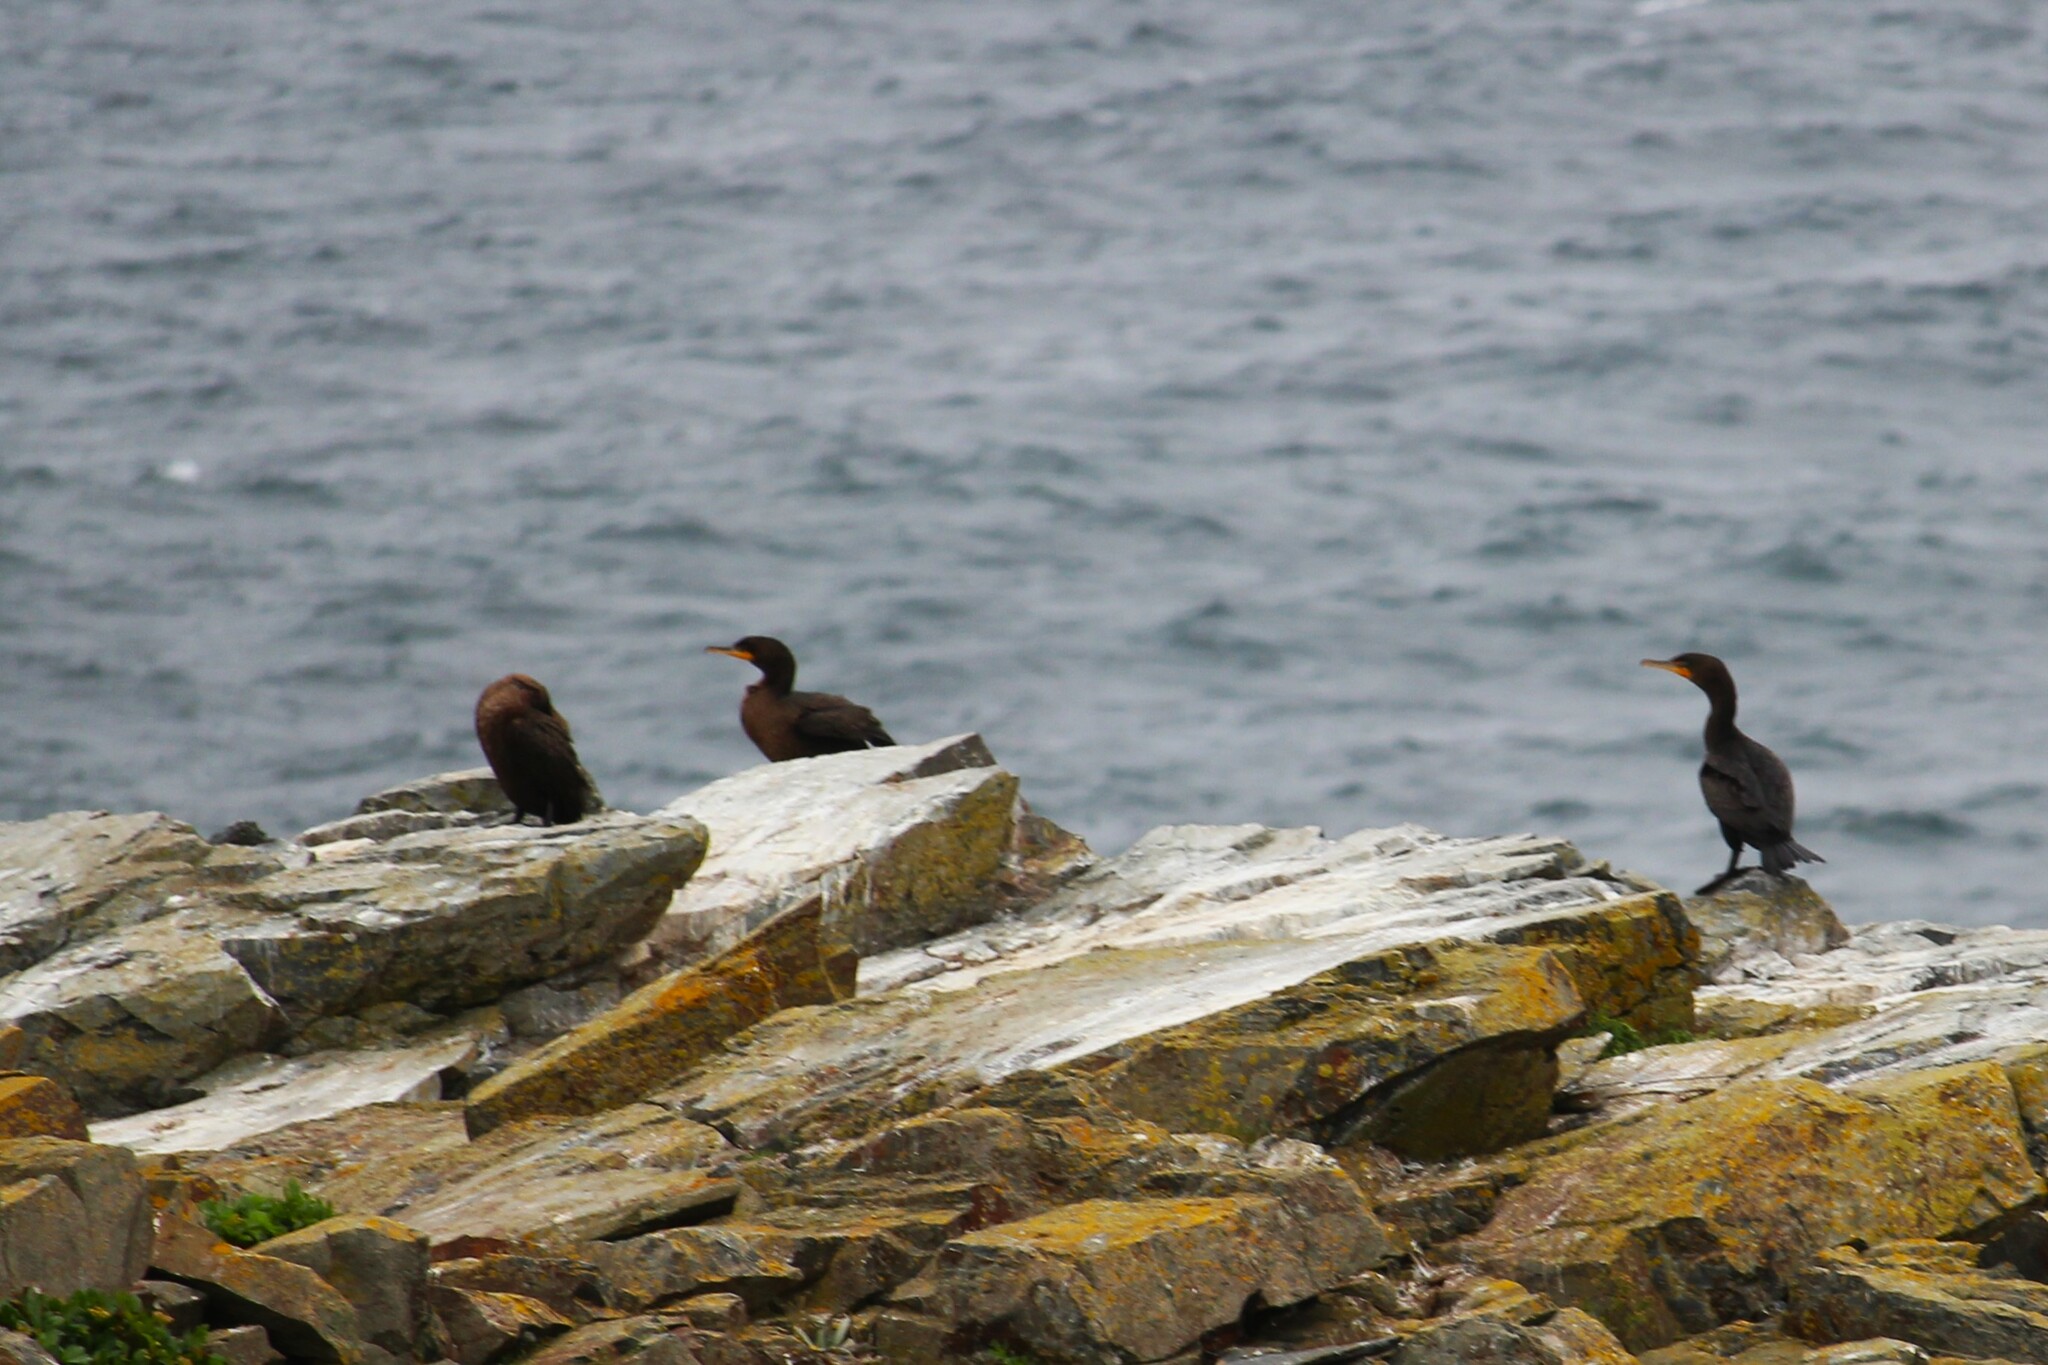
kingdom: Animalia
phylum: Chordata
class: Aves
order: Suliformes
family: Phalacrocoracidae
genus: Phalacrocorax
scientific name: Phalacrocorax auritus
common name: Double-crested cormorant
